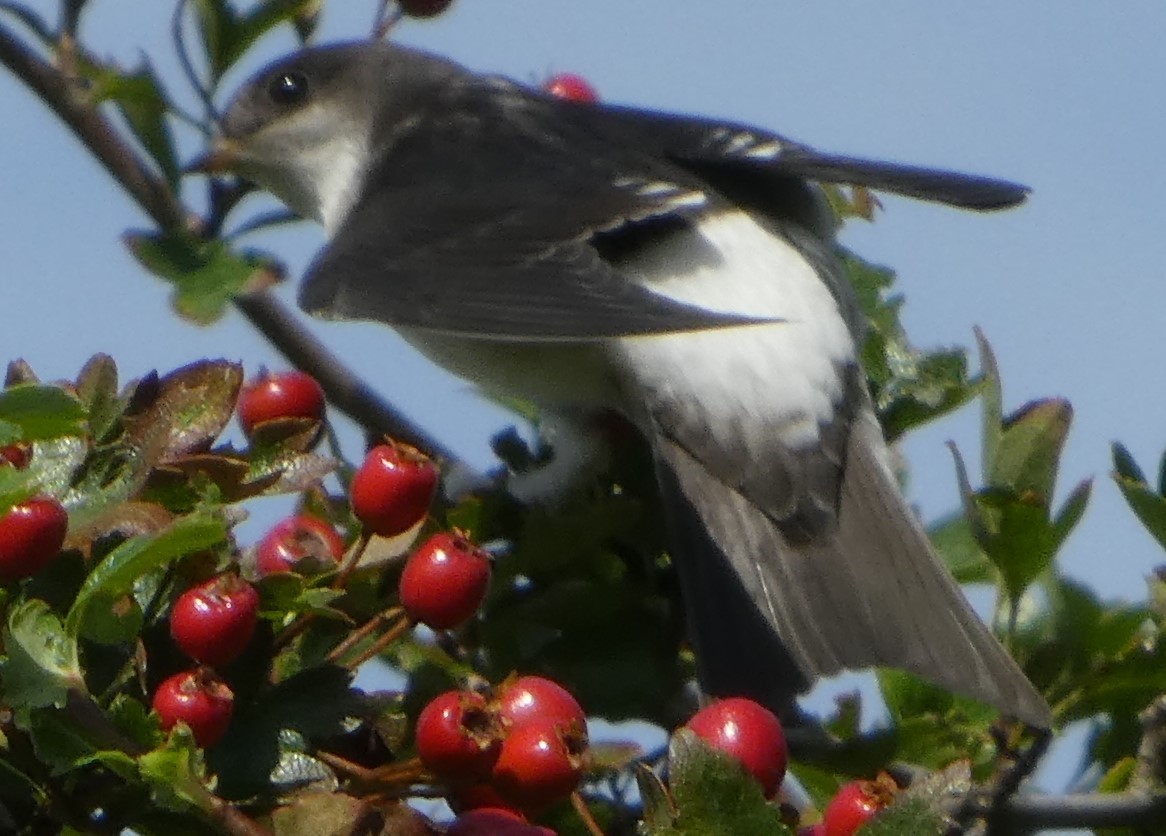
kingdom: Animalia
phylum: Chordata
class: Aves
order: Passeriformes
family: Hirundinidae
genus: Delichon
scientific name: Delichon urbicum
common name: Common house martin
